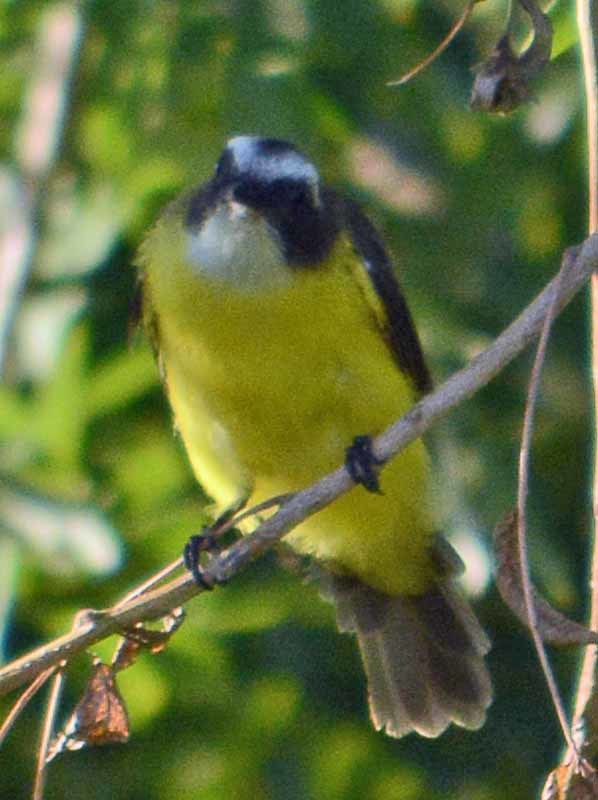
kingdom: Animalia
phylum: Chordata
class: Aves
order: Passeriformes
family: Tyrannidae
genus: Myiozetetes
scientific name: Myiozetetes similis
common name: Social flycatcher
